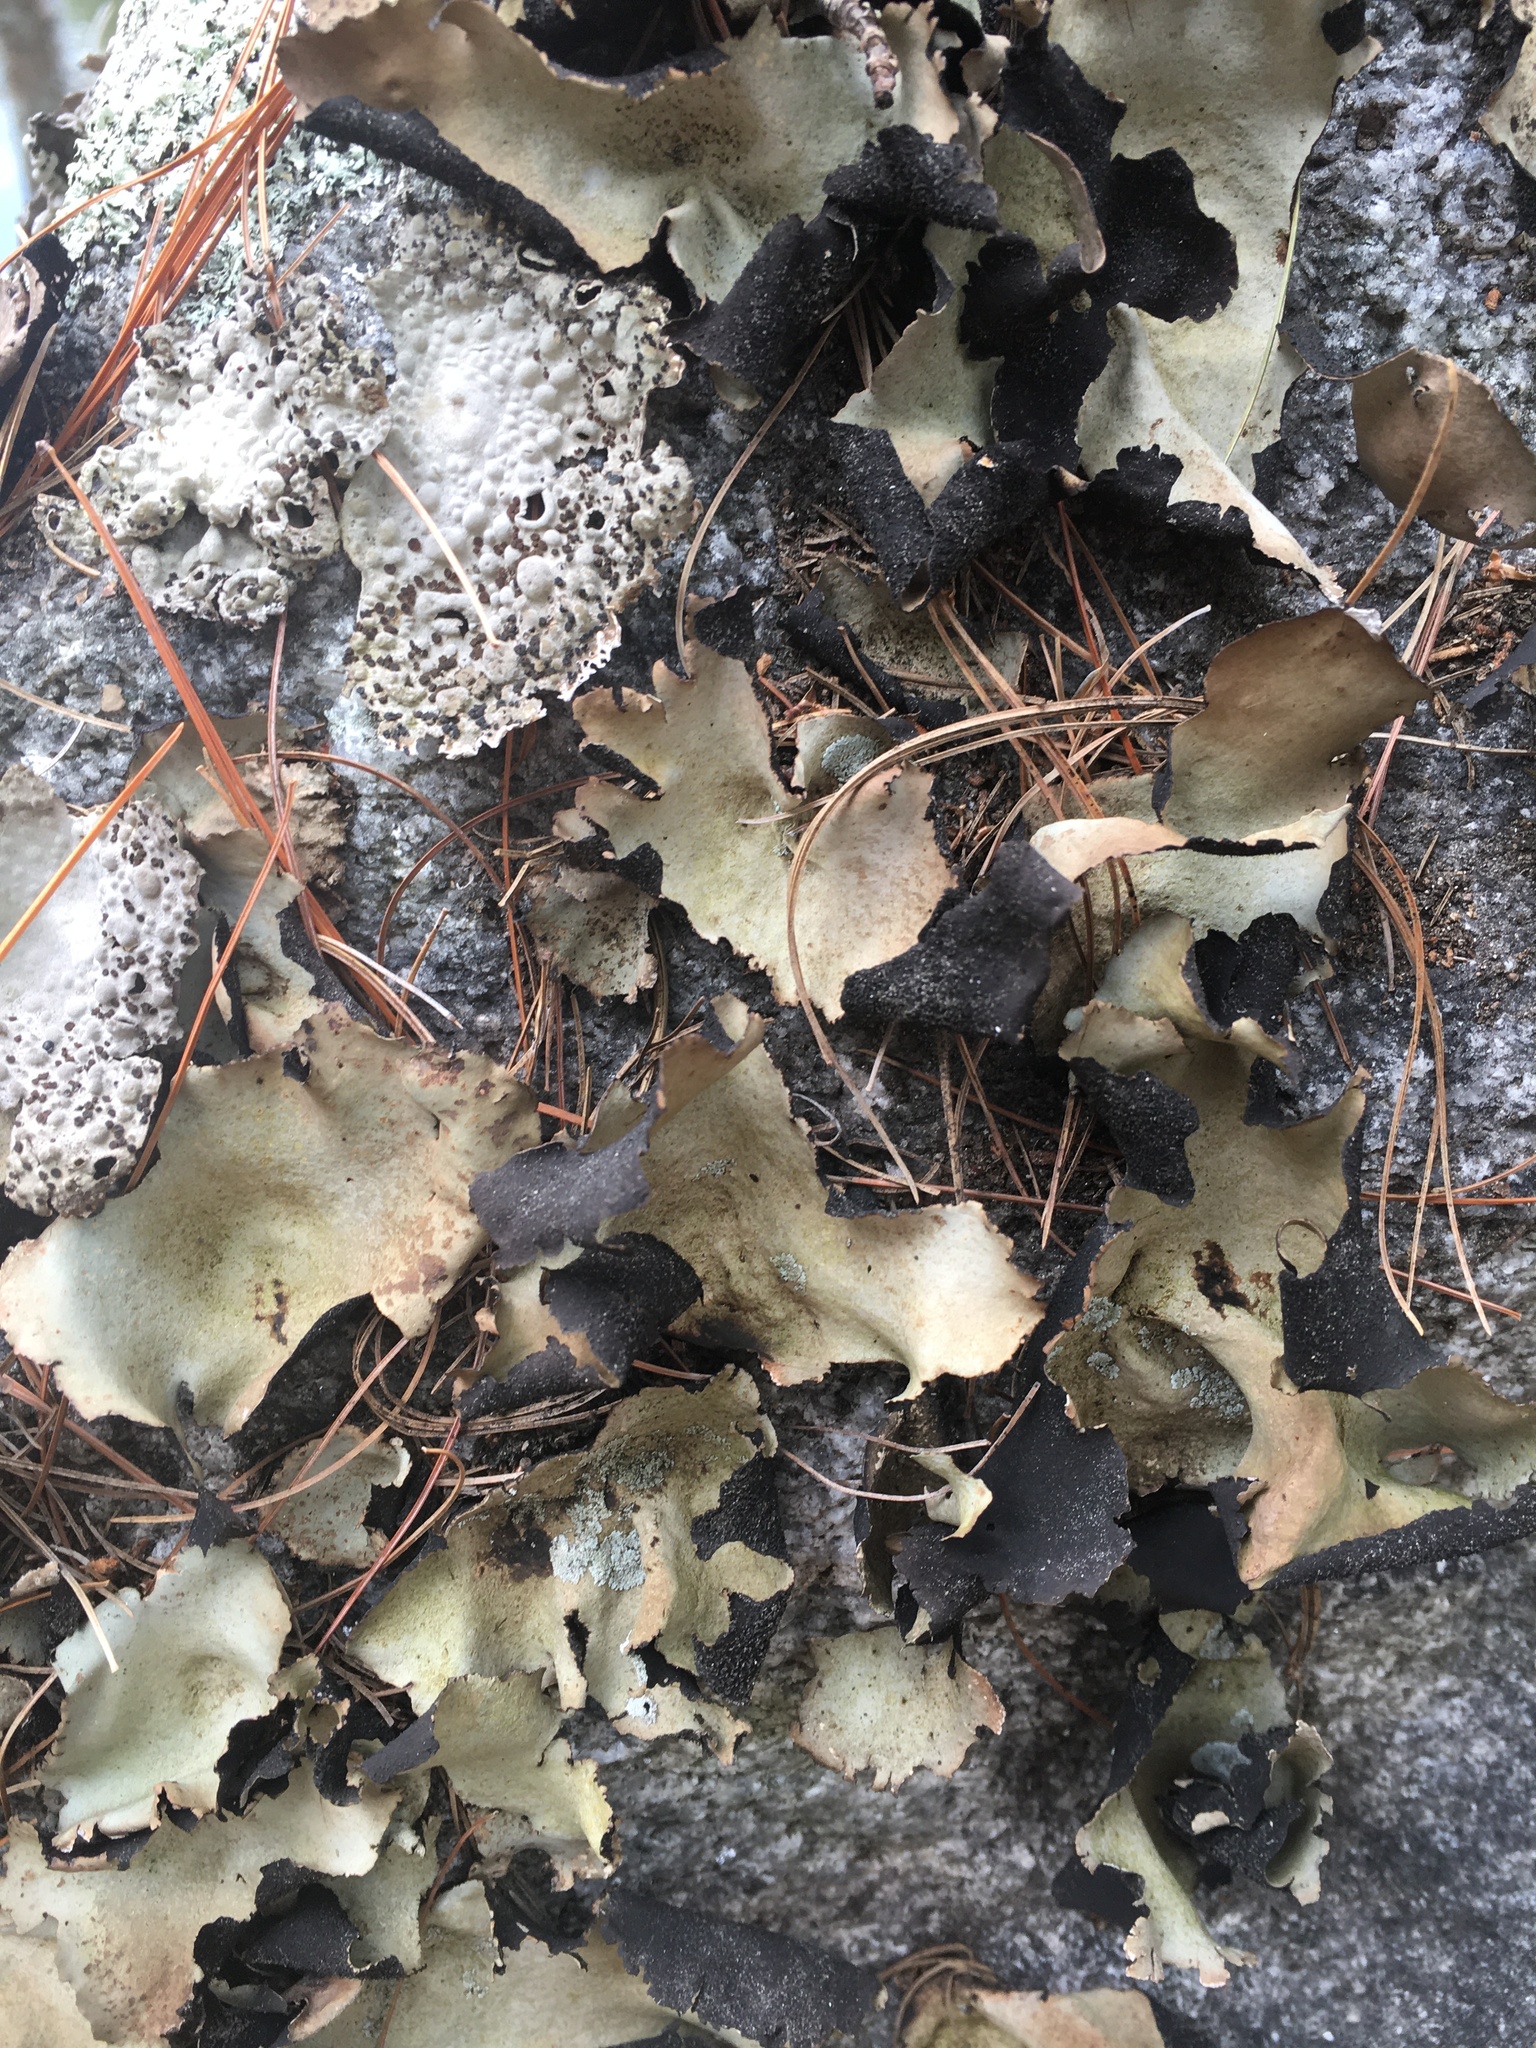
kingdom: Fungi
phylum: Ascomycota
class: Lecanoromycetes
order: Umbilicariales
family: Umbilicariaceae
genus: Umbilicaria
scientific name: Umbilicaria mammulata
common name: Smooth rock tripe
